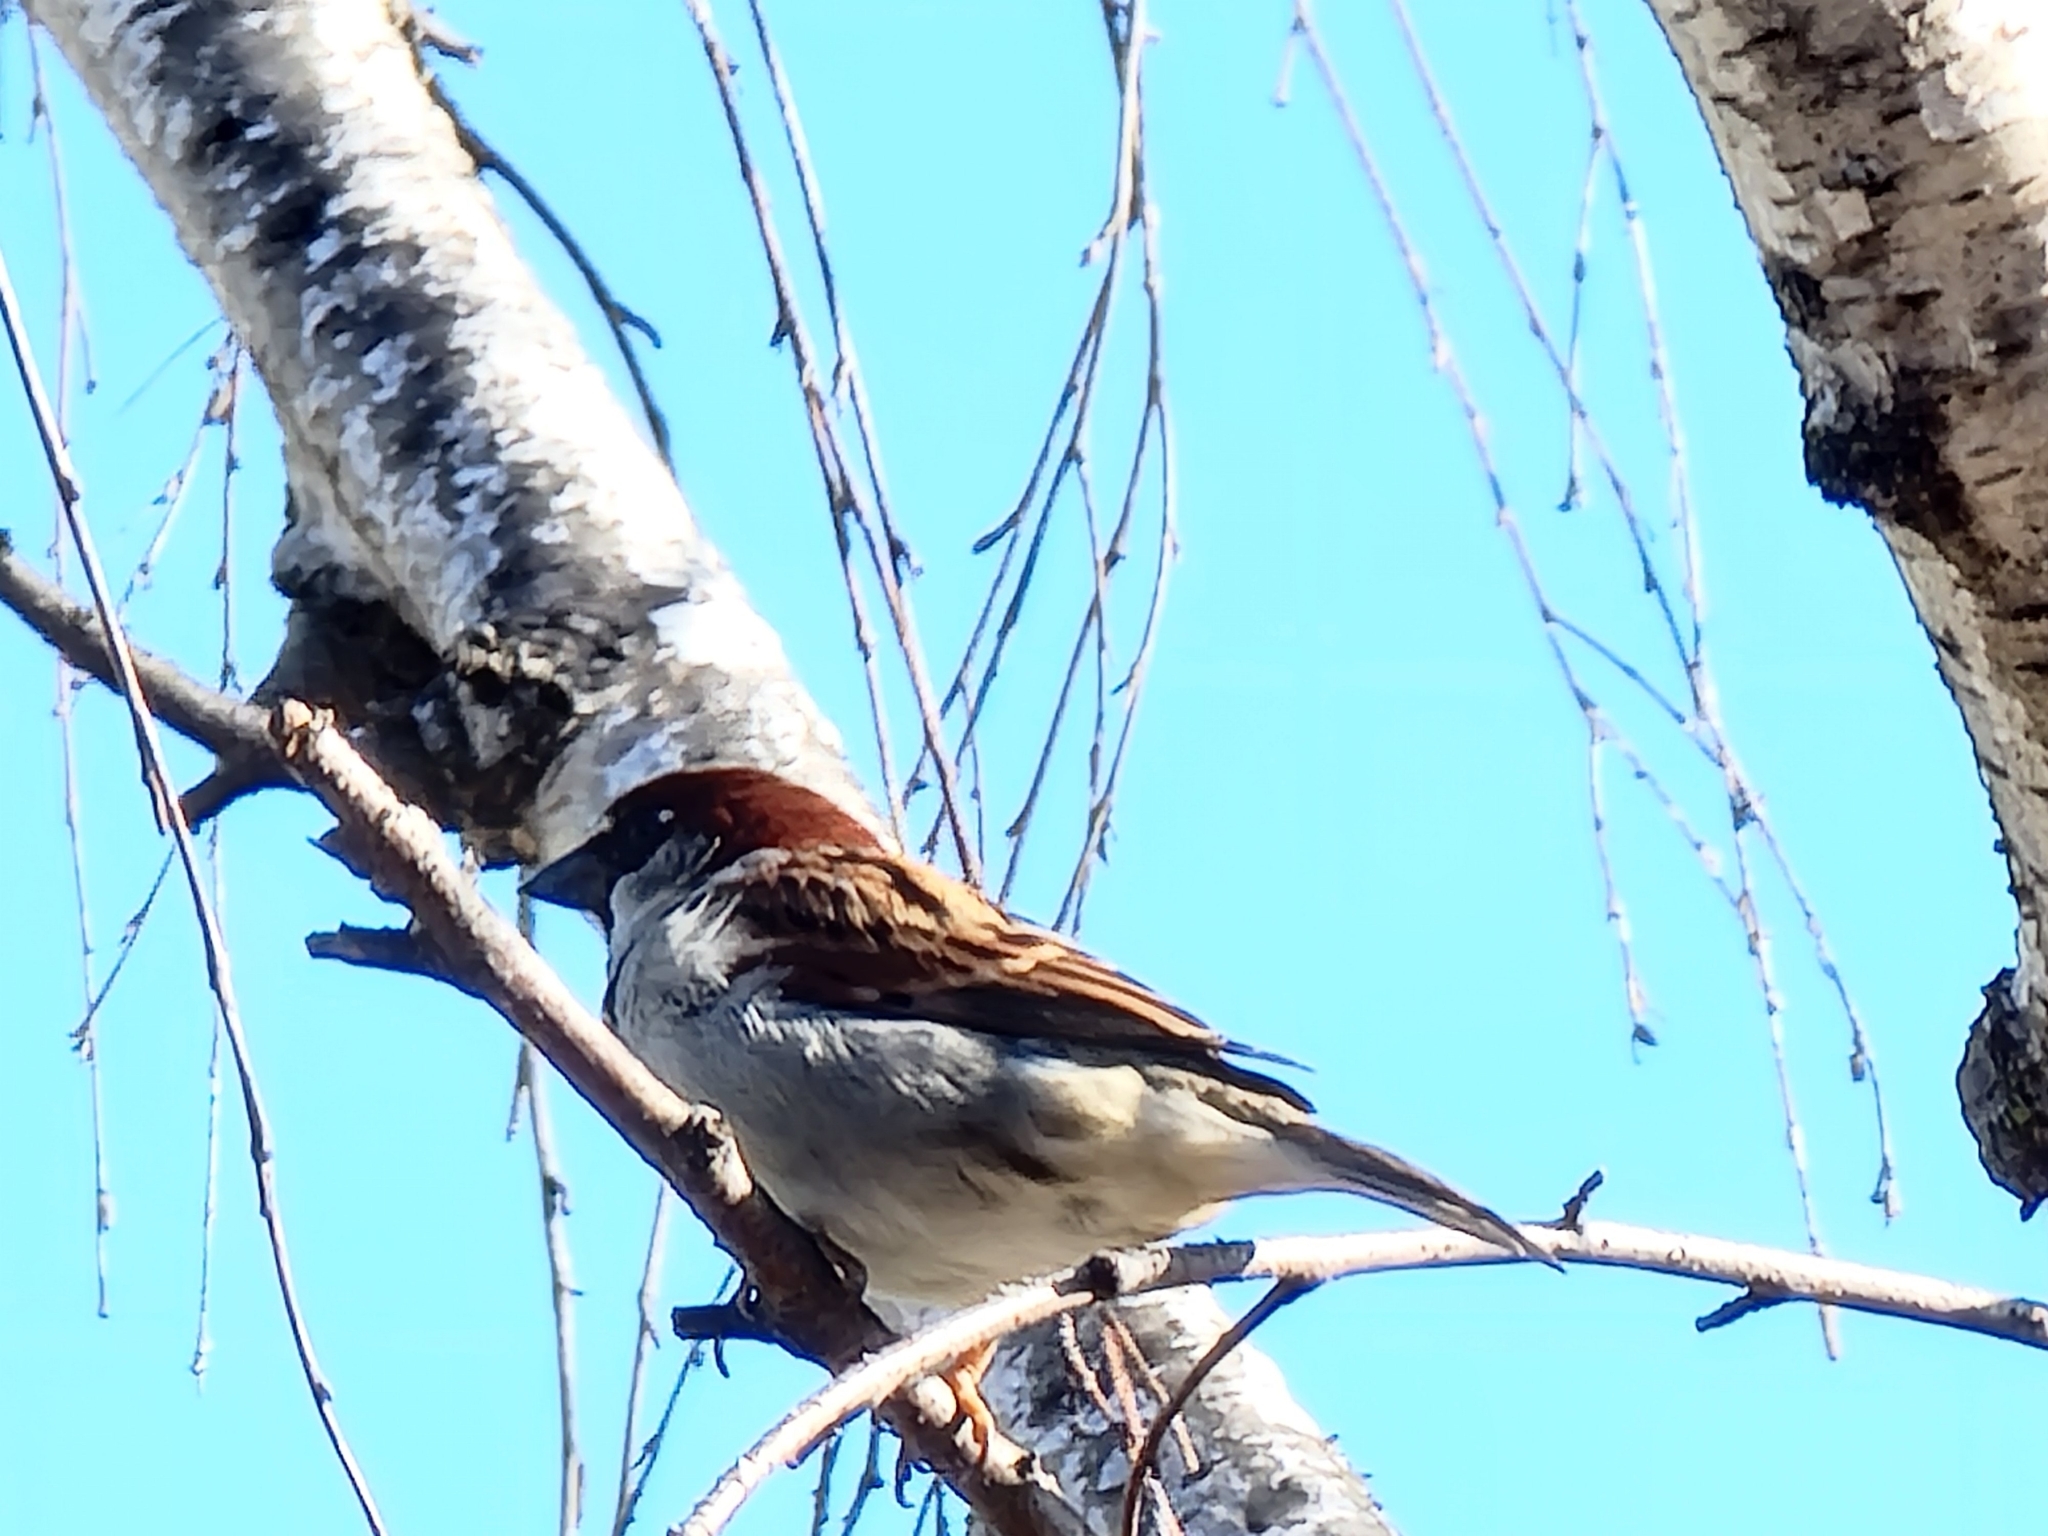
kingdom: Animalia
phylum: Chordata
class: Aves
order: Passeriformes
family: Passeridae
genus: Passer
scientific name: Passer domesticus
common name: House sparrow
